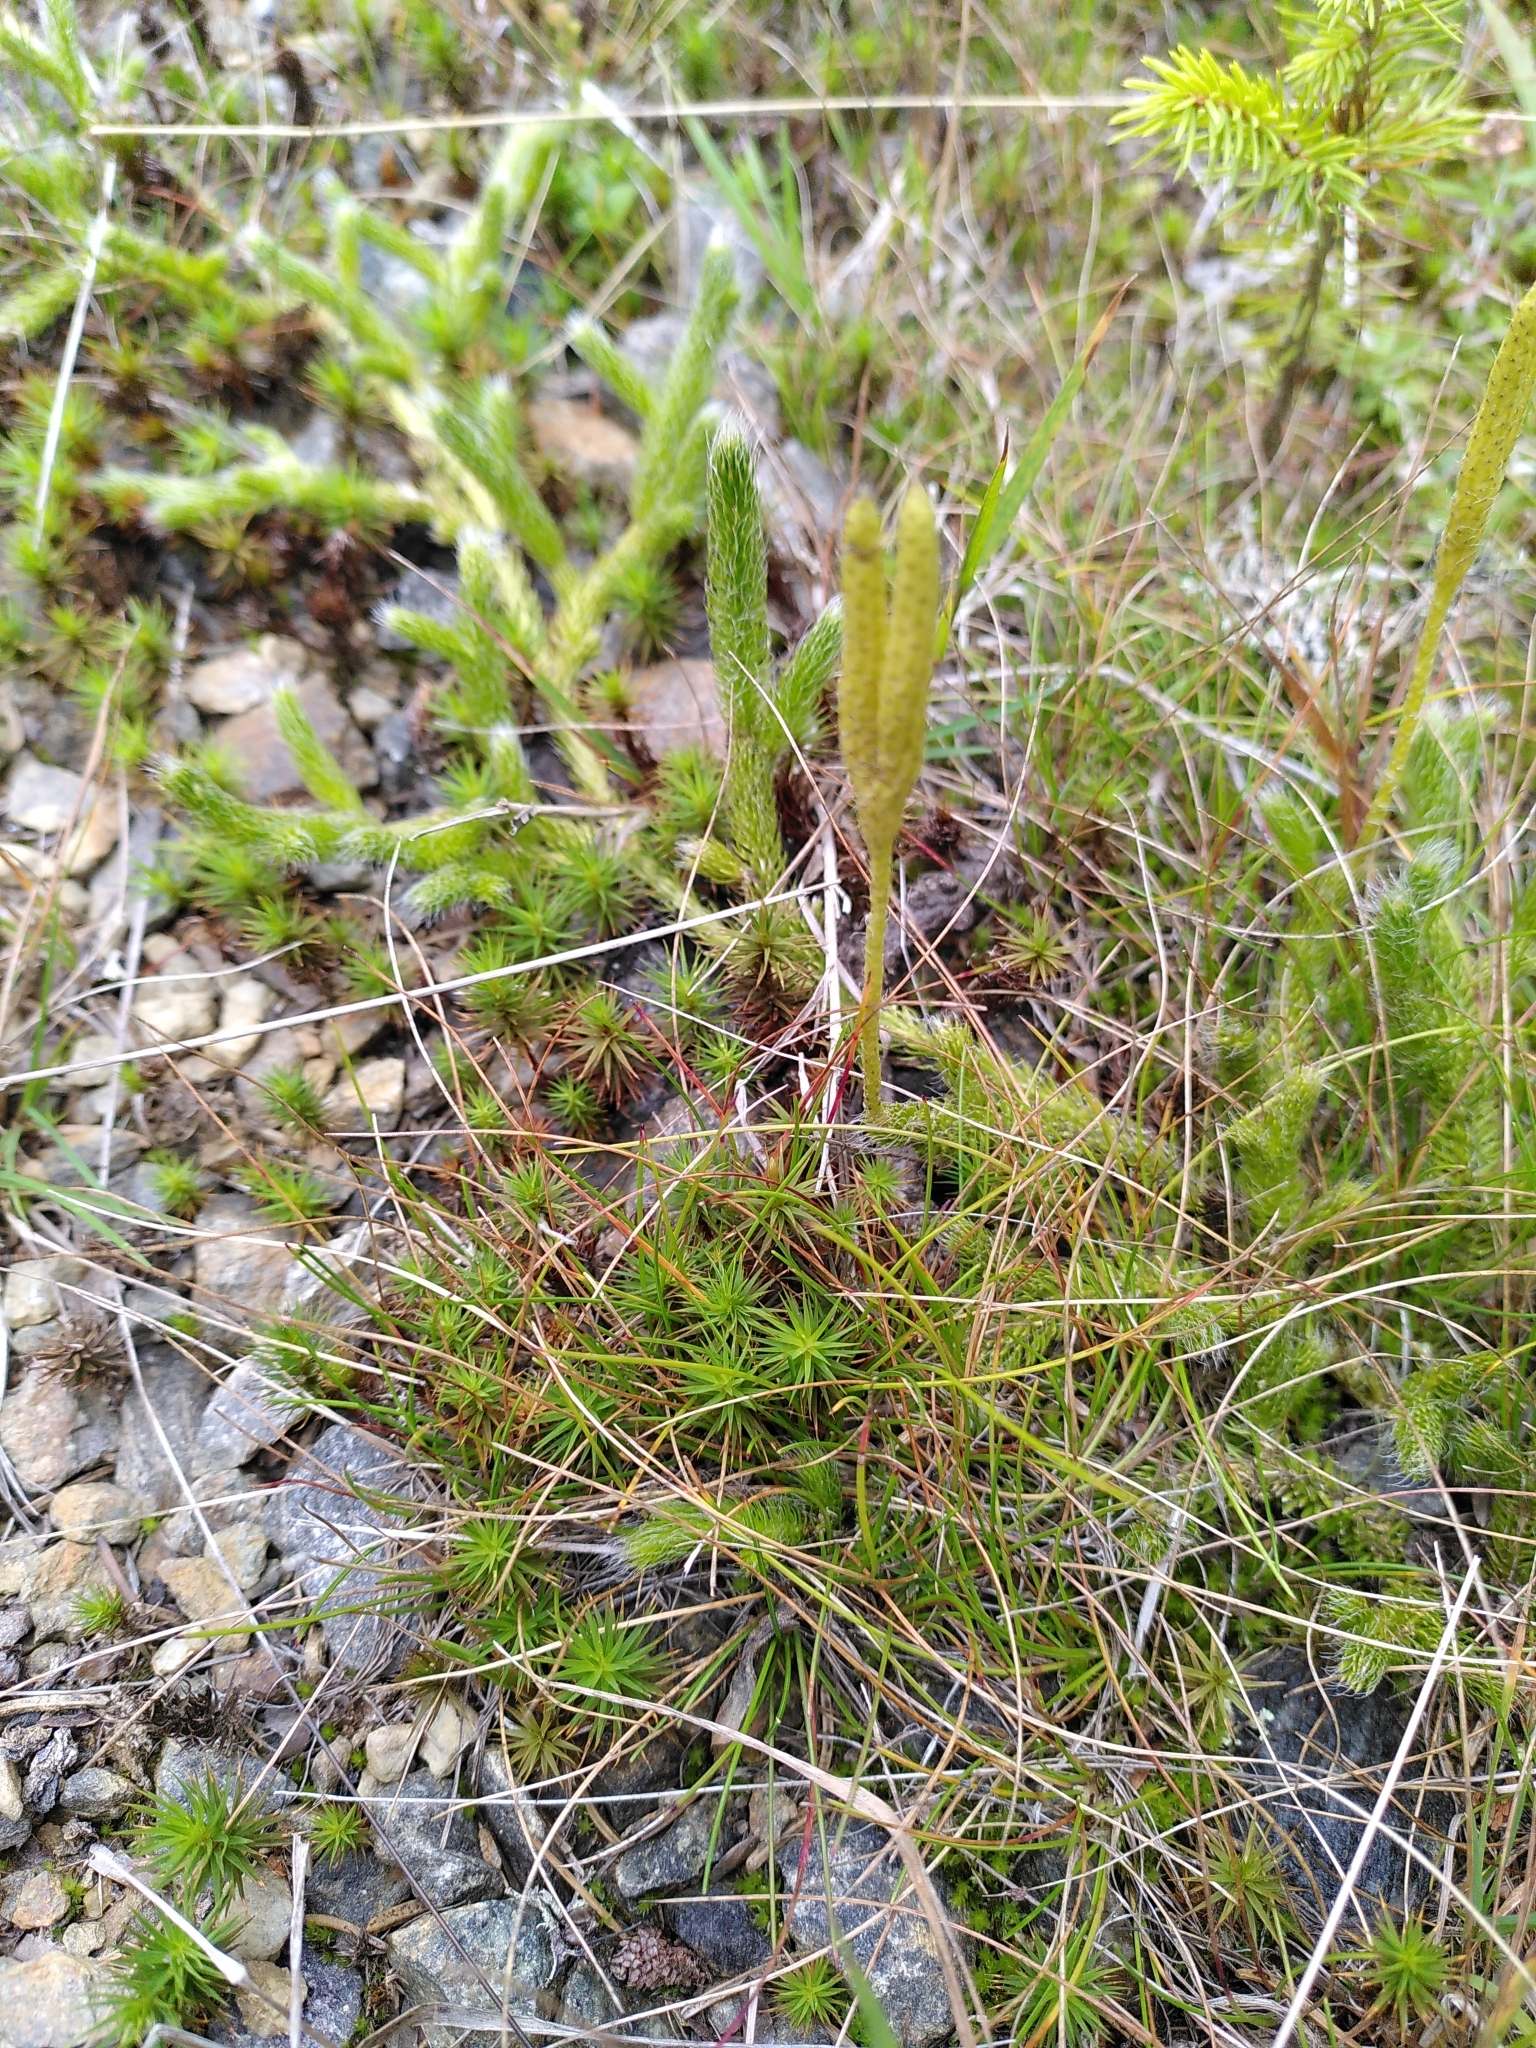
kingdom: Plantae
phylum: Tracheophyta
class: Lycopodiopsida
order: Lycopodiales
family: Lycopodiaceae
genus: Lycopodium
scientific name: Lycopodium clavatum
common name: Stag's-horn clubmoss
